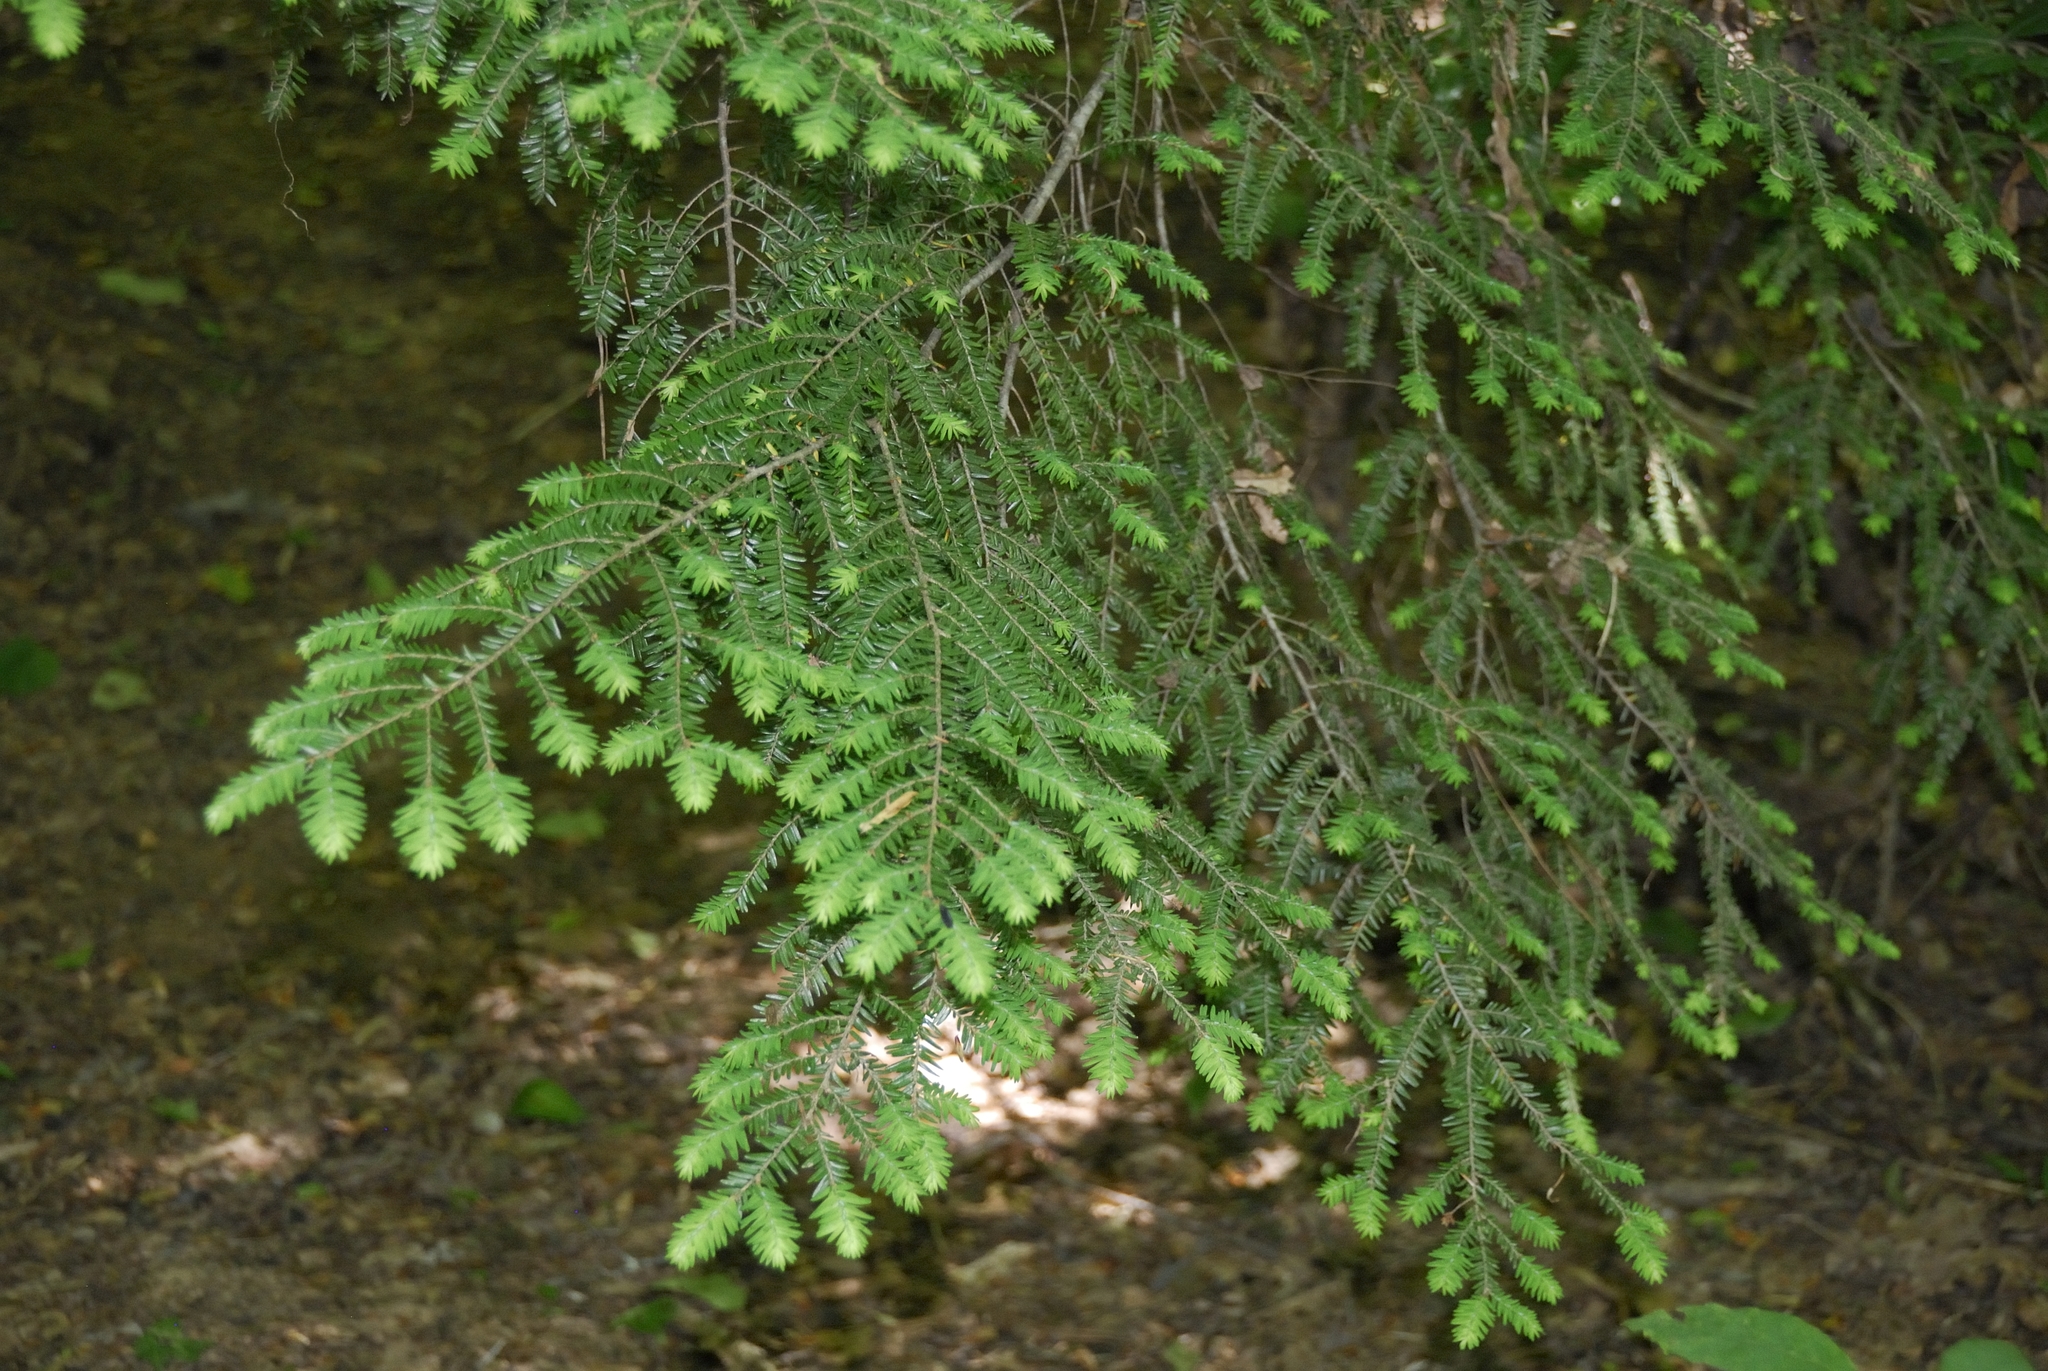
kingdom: Plantae
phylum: Tracheophyta
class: Pinopsida
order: Pinales
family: Pinaceae
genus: Tsuga
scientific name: Tsuga canadensis
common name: Eastern hemlock
